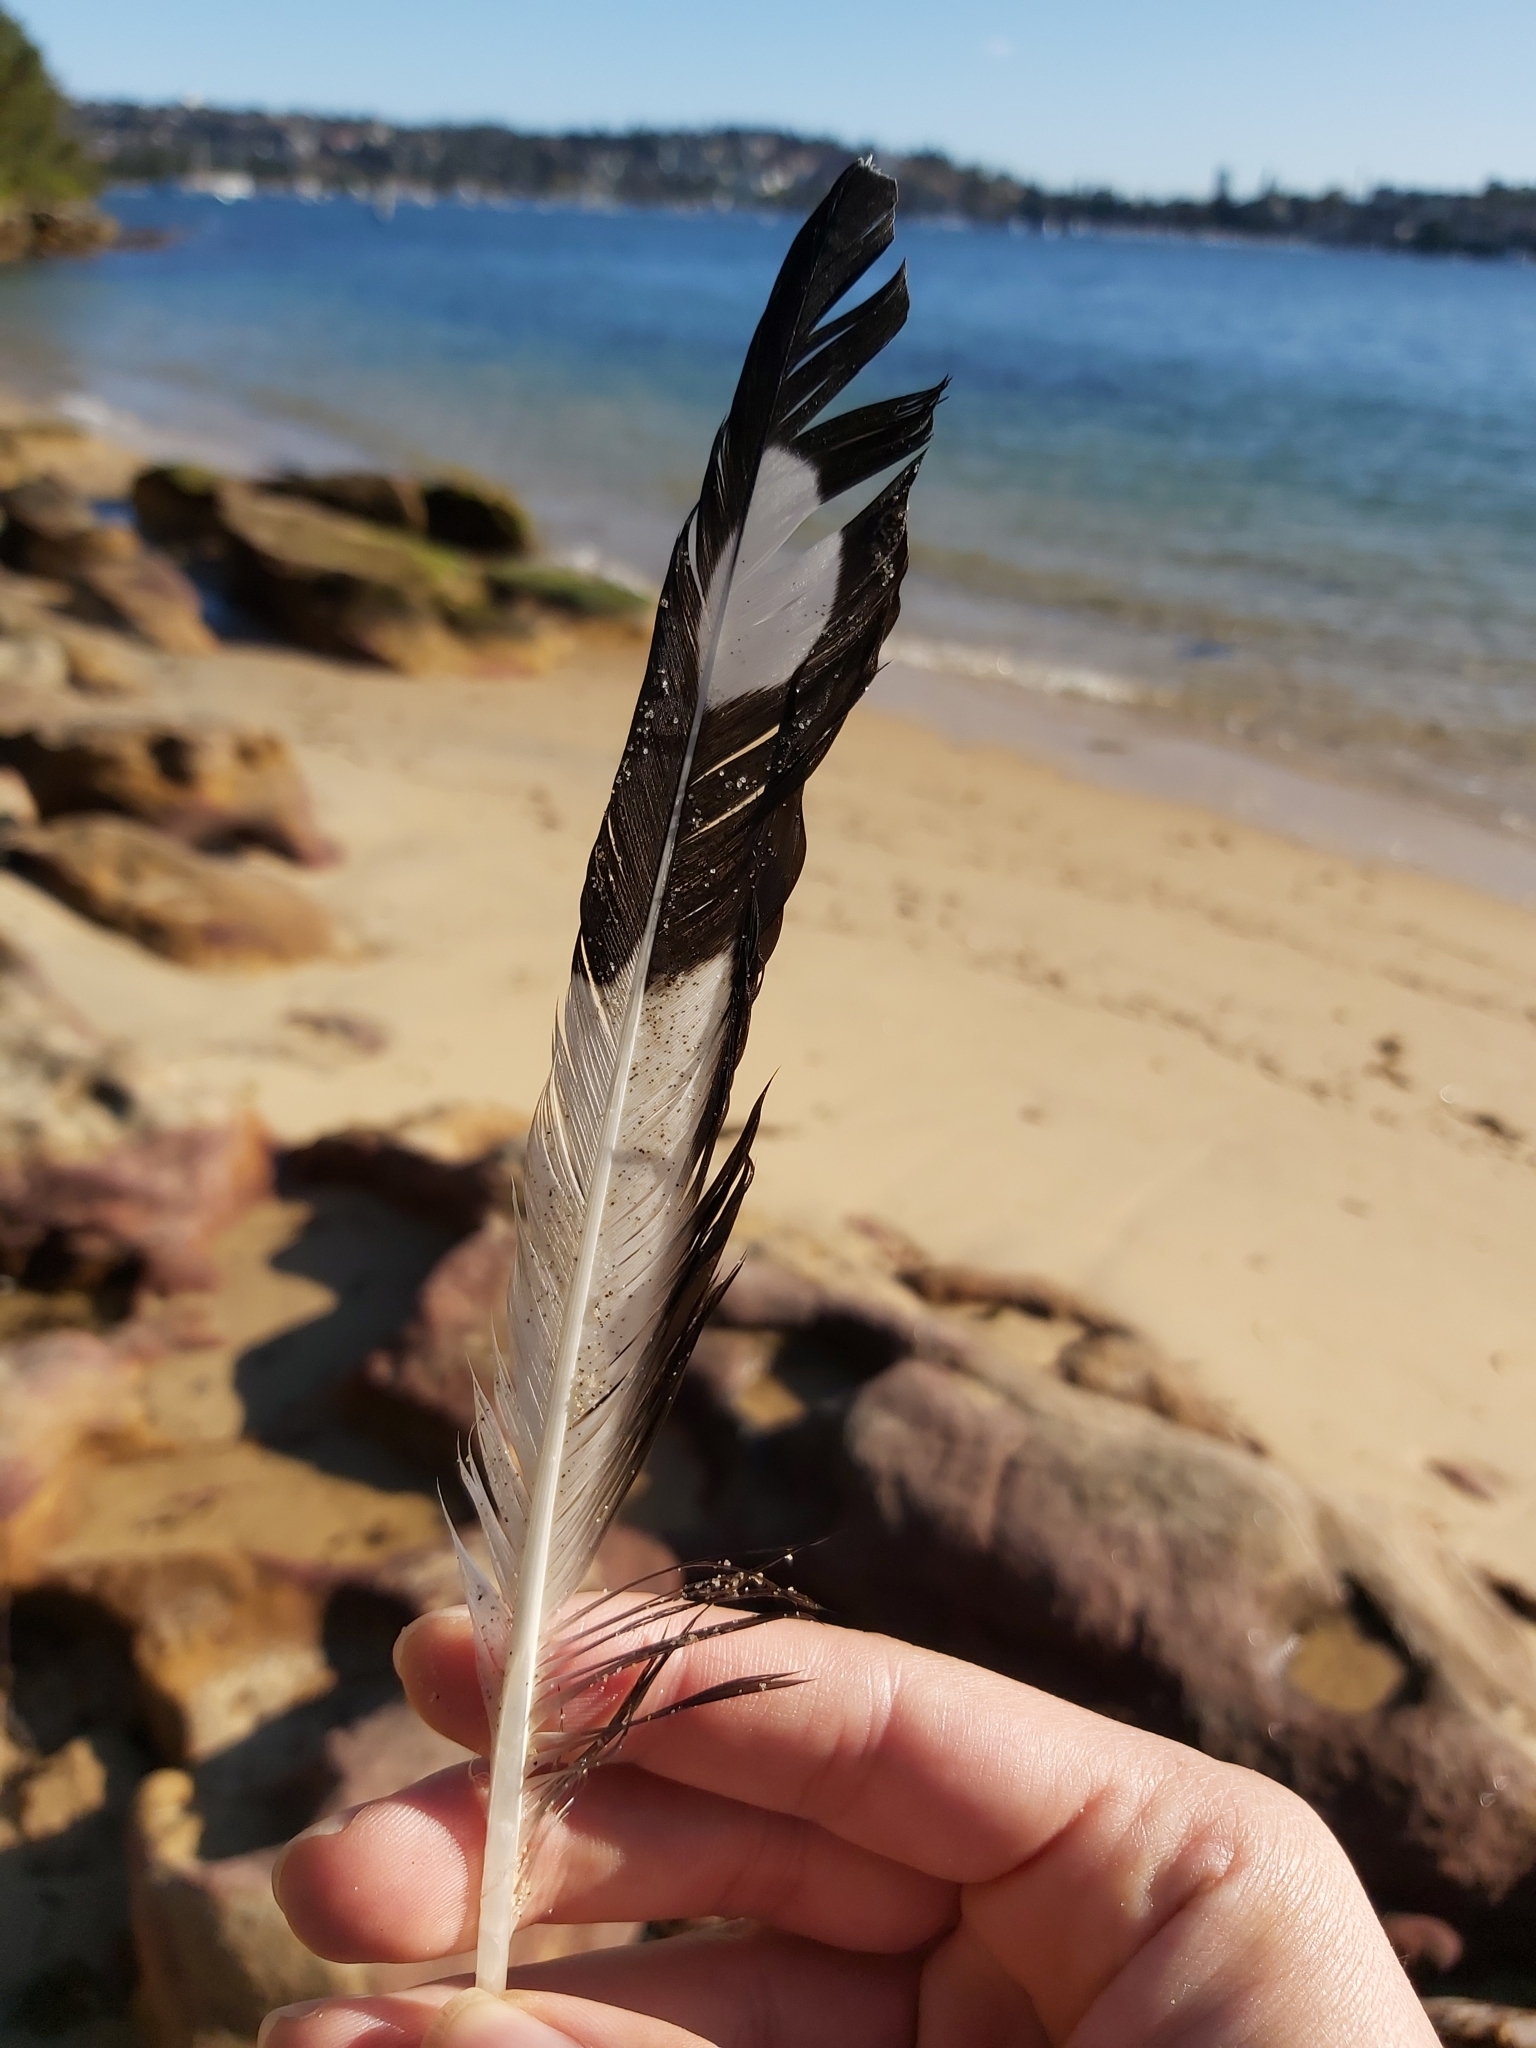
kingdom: Animalia
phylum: Chordata
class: Aves
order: Charadriiformes
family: Laridae
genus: Chroicocephalus
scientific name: Chroicocephalus novaehollandiae
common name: Silver gull
